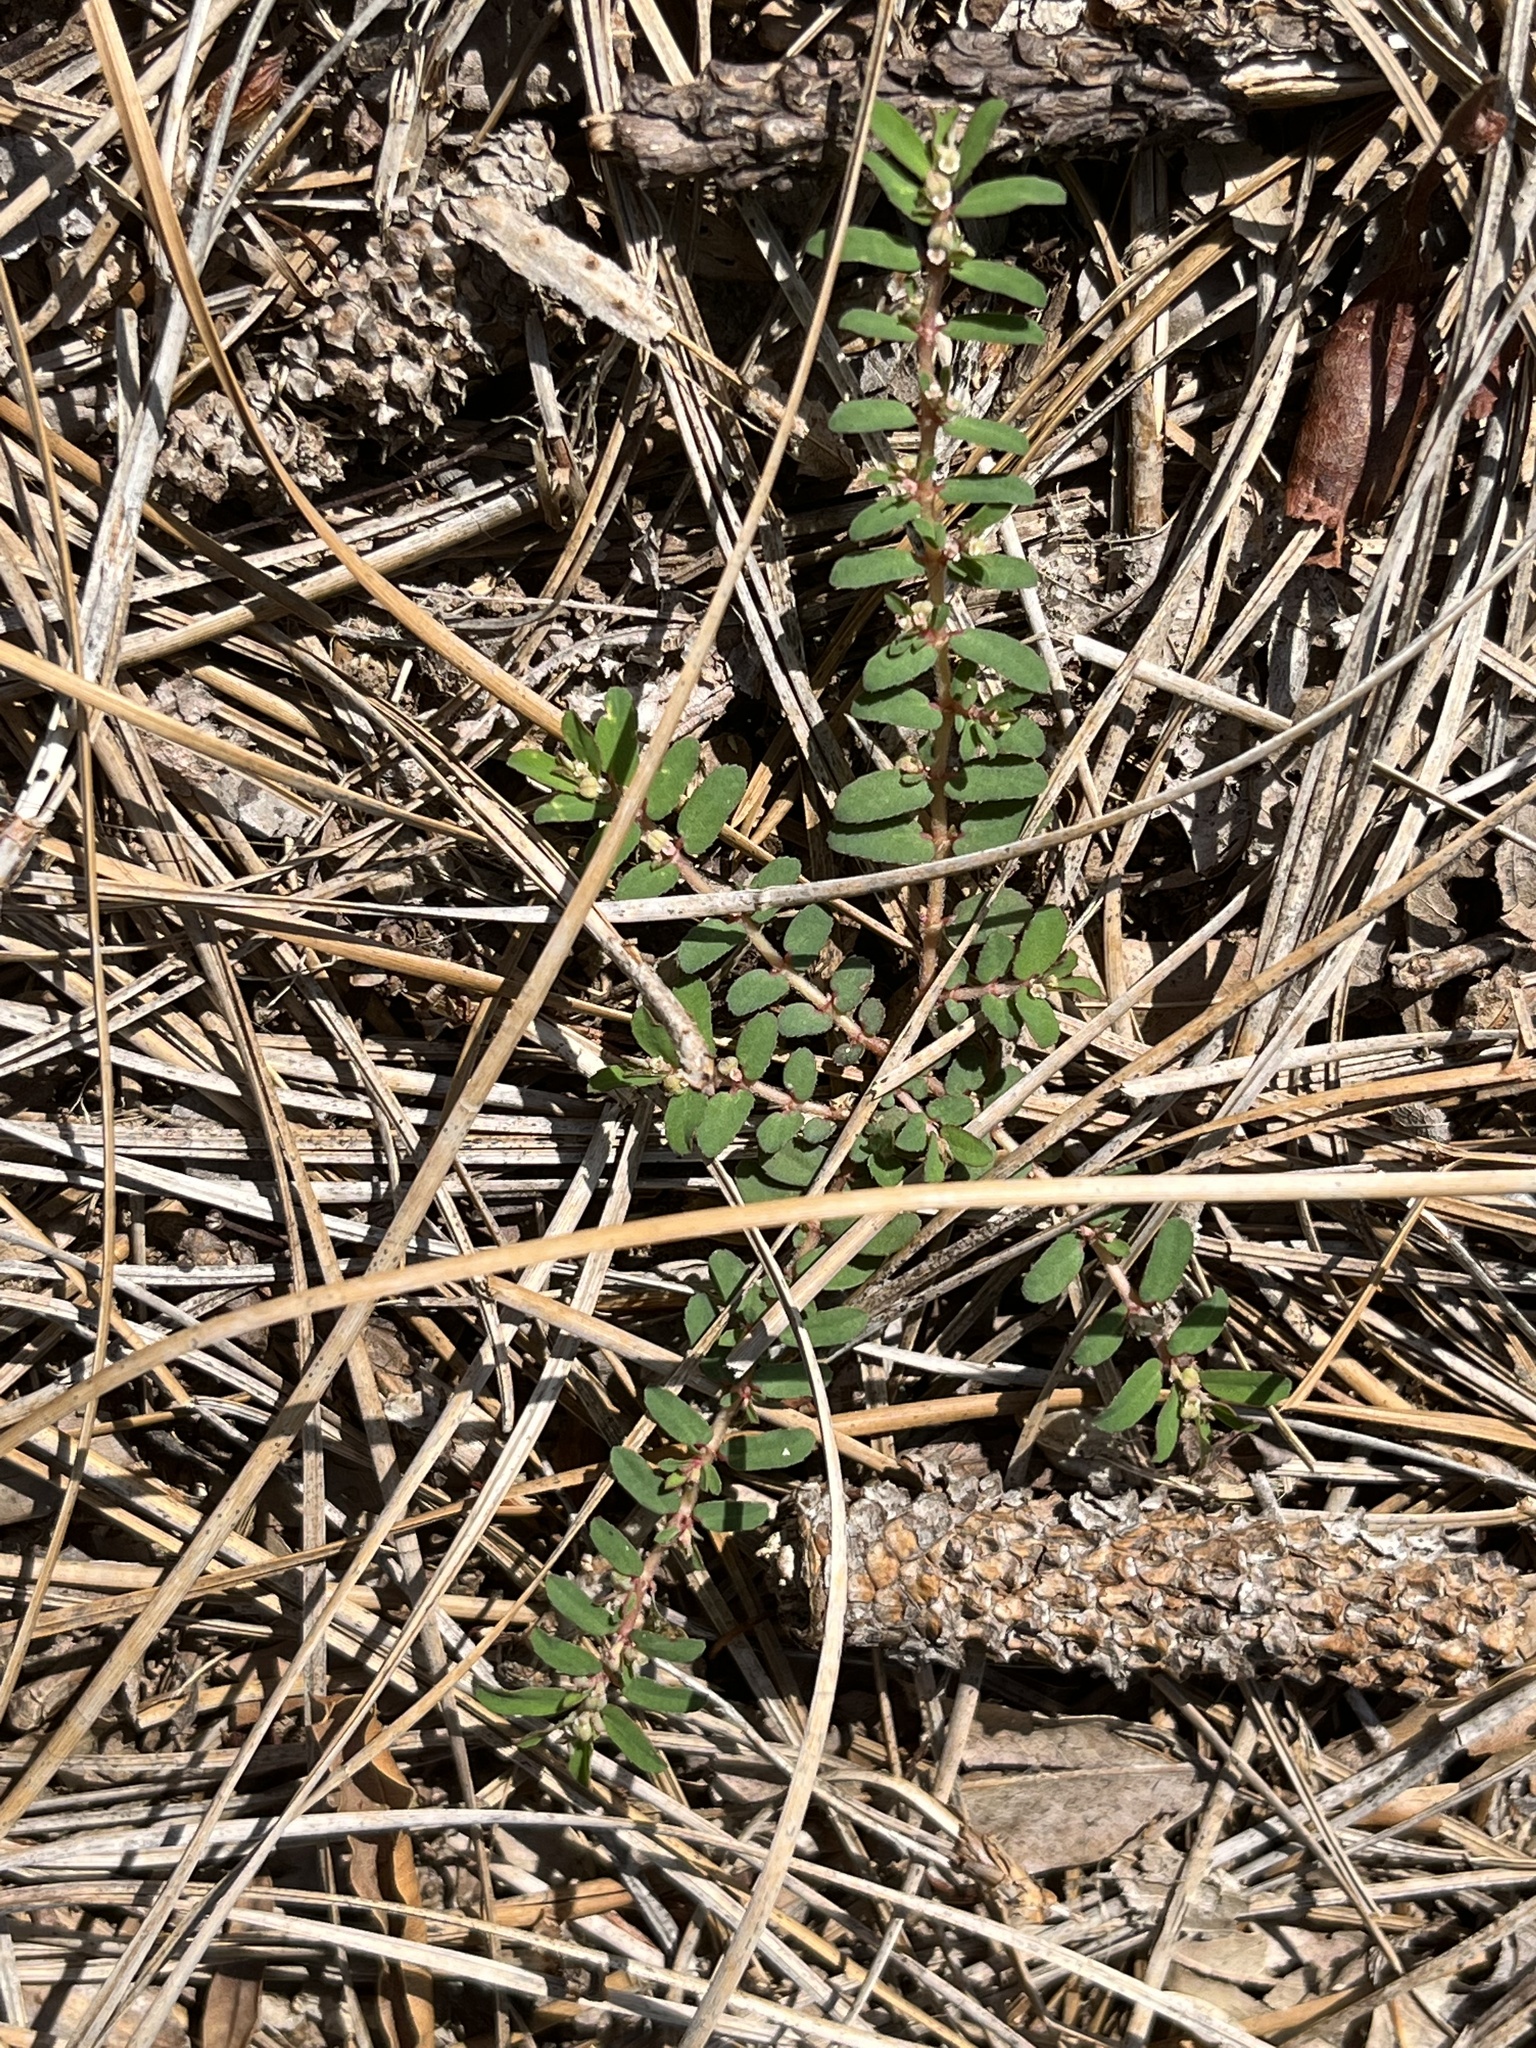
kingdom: Plantae
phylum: Tracheophyta
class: Magnoliopsida
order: Malpighiales
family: Euphorbiaceae
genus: Euphorbia
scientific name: Euphorbia maculata
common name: Spotted spurge
